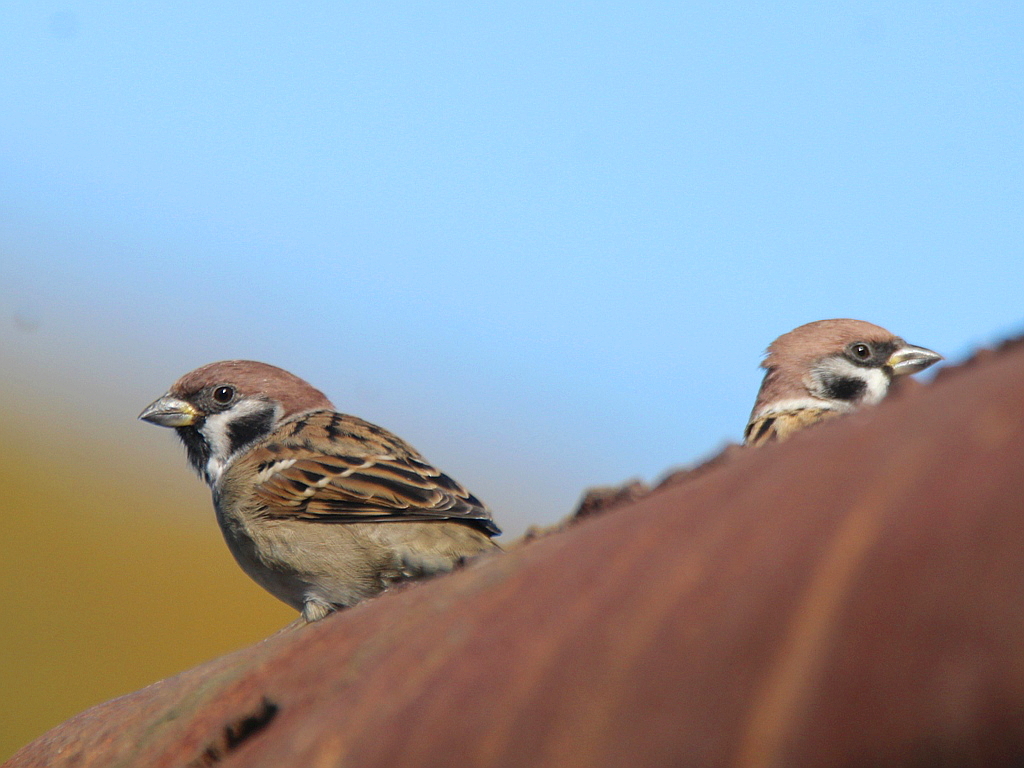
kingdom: Animalia
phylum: Chordata
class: Aves
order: Passeriformes
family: Passeridae
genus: Passer
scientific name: Passer montanus
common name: Eurasian tree sparrow
